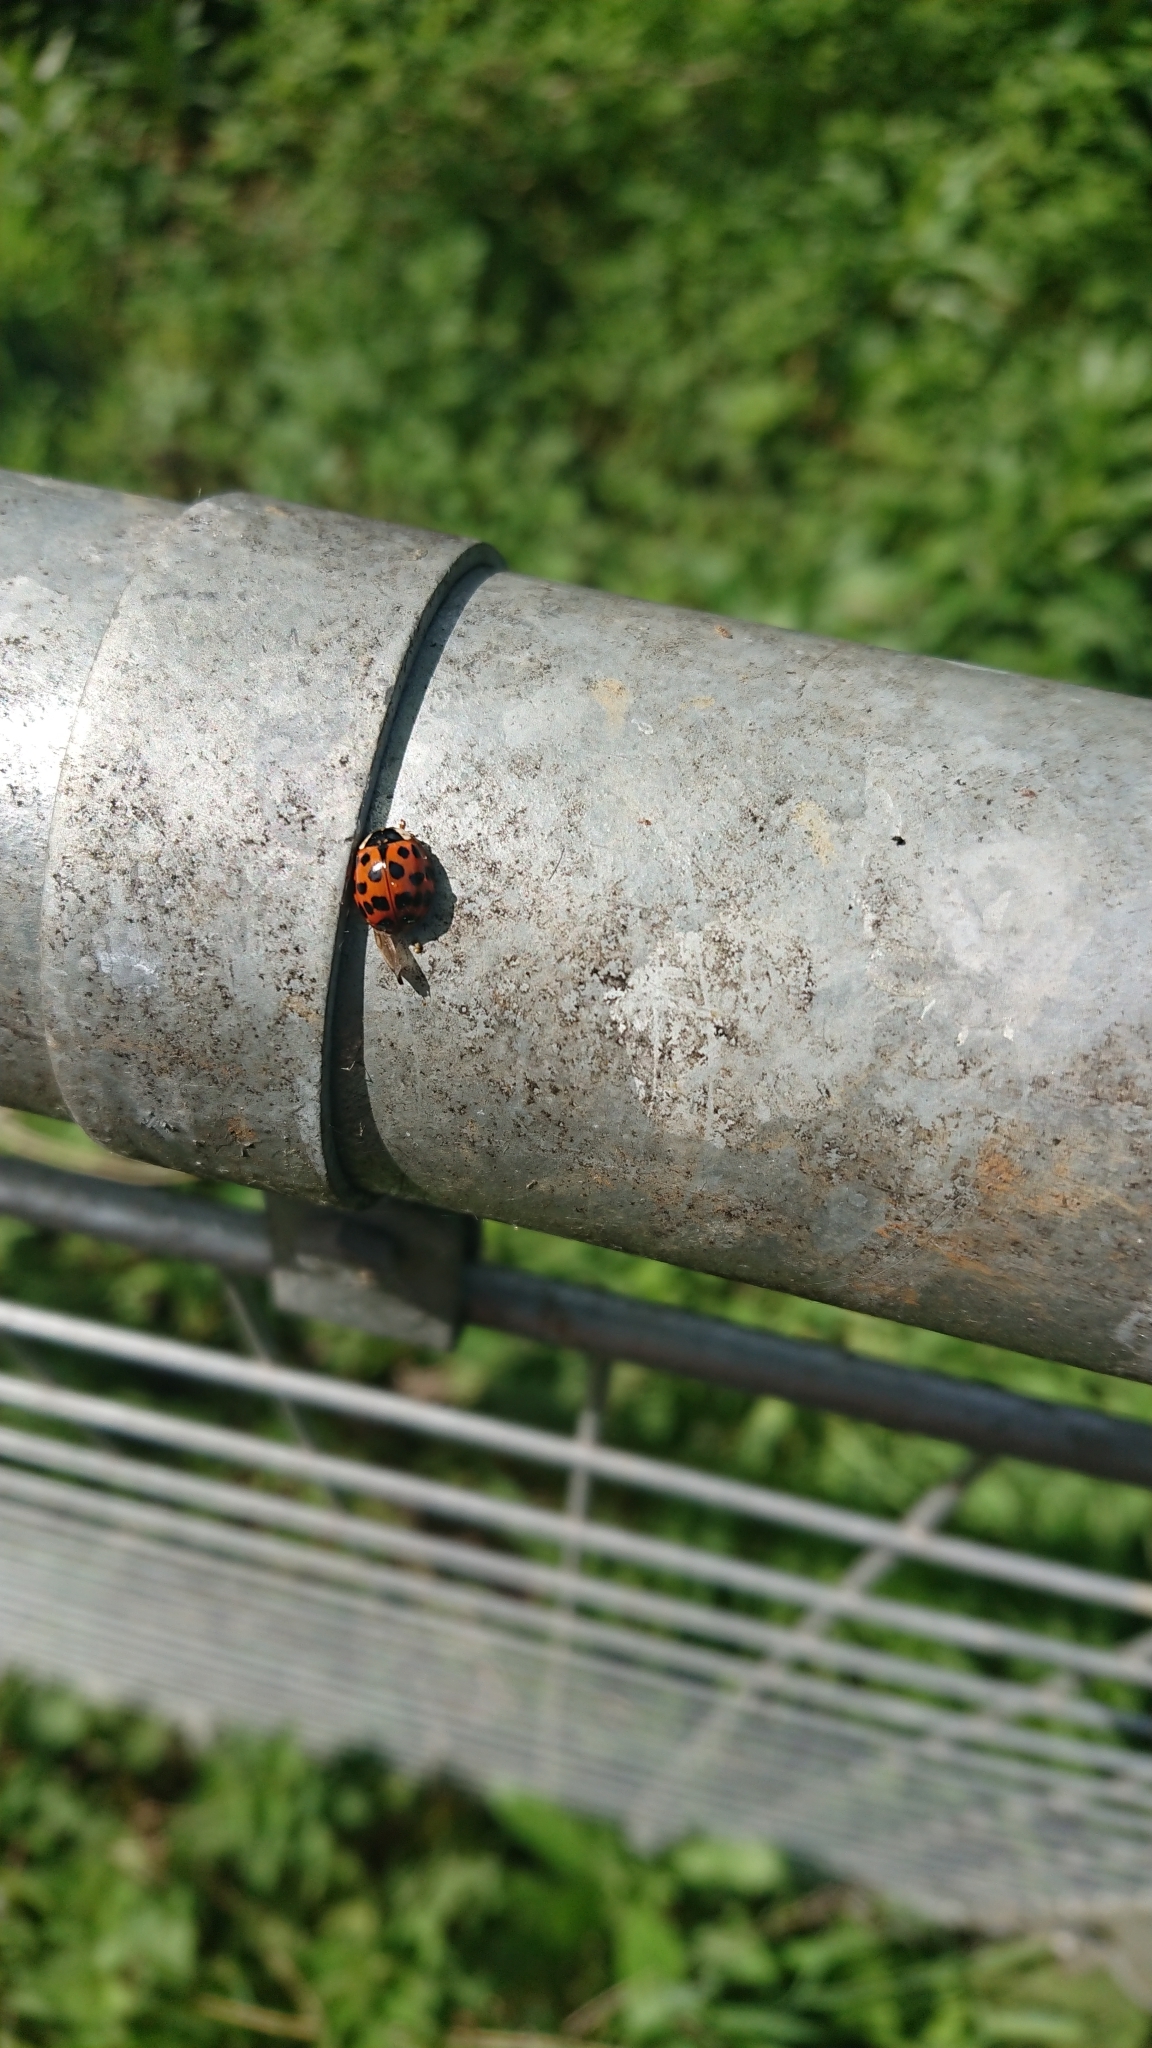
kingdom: Animalia
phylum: Arthropoda
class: Insecta
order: Coleoptera
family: Coccinellidae
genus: Harmonia
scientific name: Harmonia axyridis
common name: Harlequin ladybird
